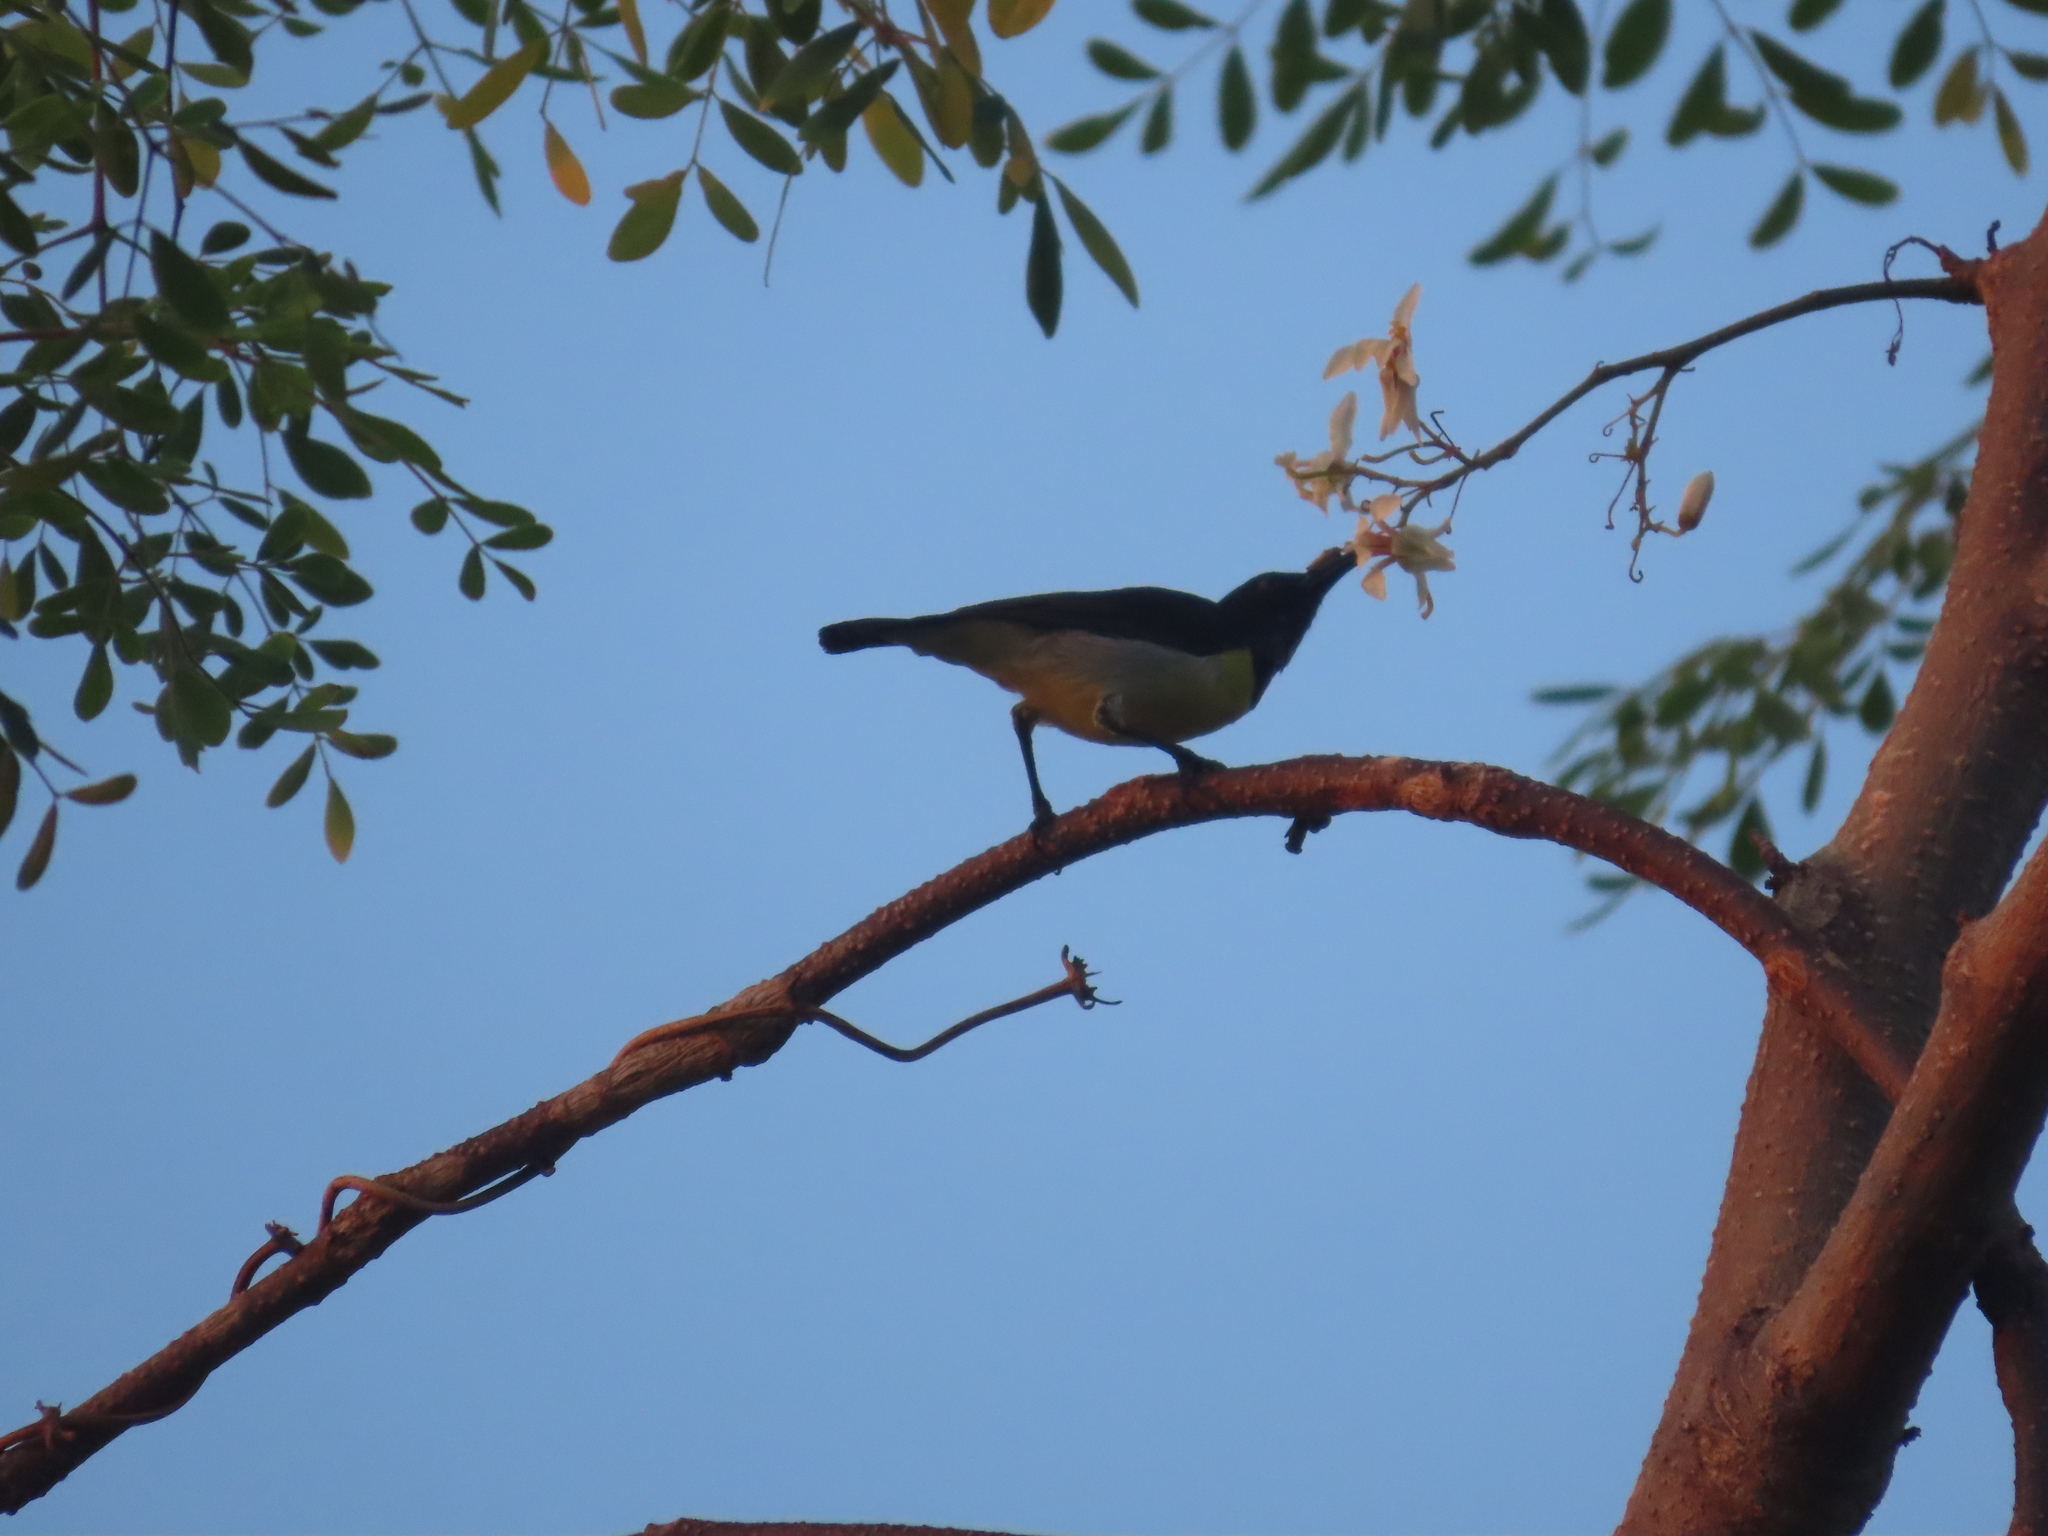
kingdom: Animalia
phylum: Chordata
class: Aves
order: Passeriformes
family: Nectariniidae
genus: Leptocoma
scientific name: Leptocoma zeylonica
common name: Purple-rumped sunbird
